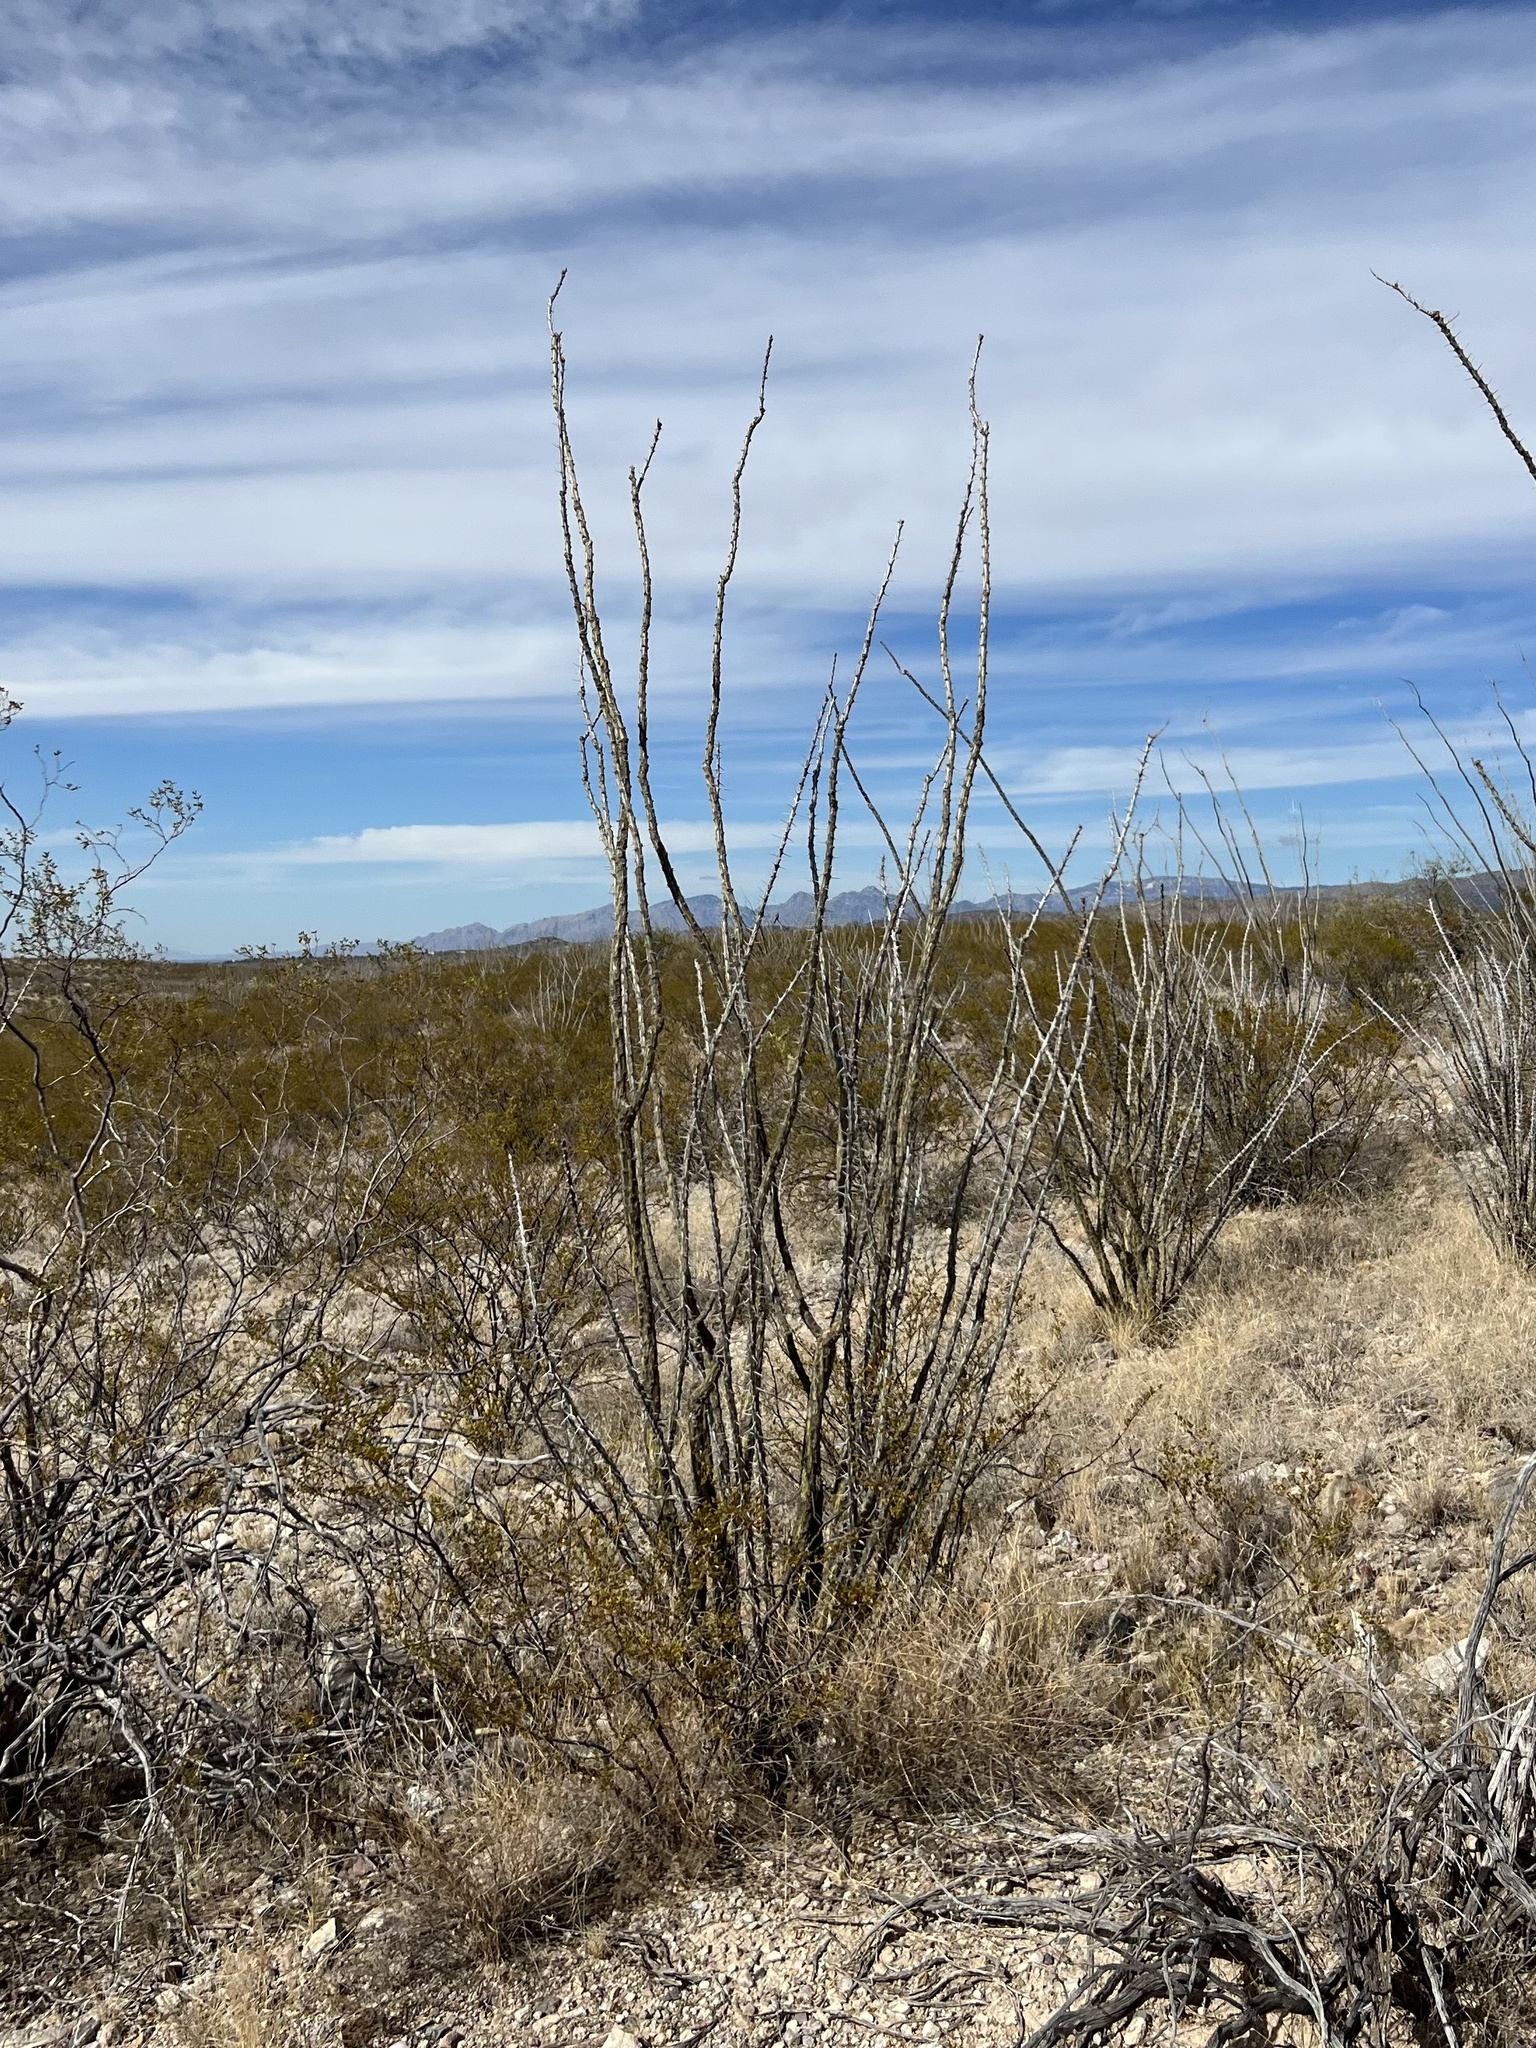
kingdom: Plantae
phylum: Tracheophyta
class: Magnoliopsida
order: Ericales
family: Fouquieriaceae
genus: Fouquieria
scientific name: Fouquieria splendens
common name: Vine-cactus
